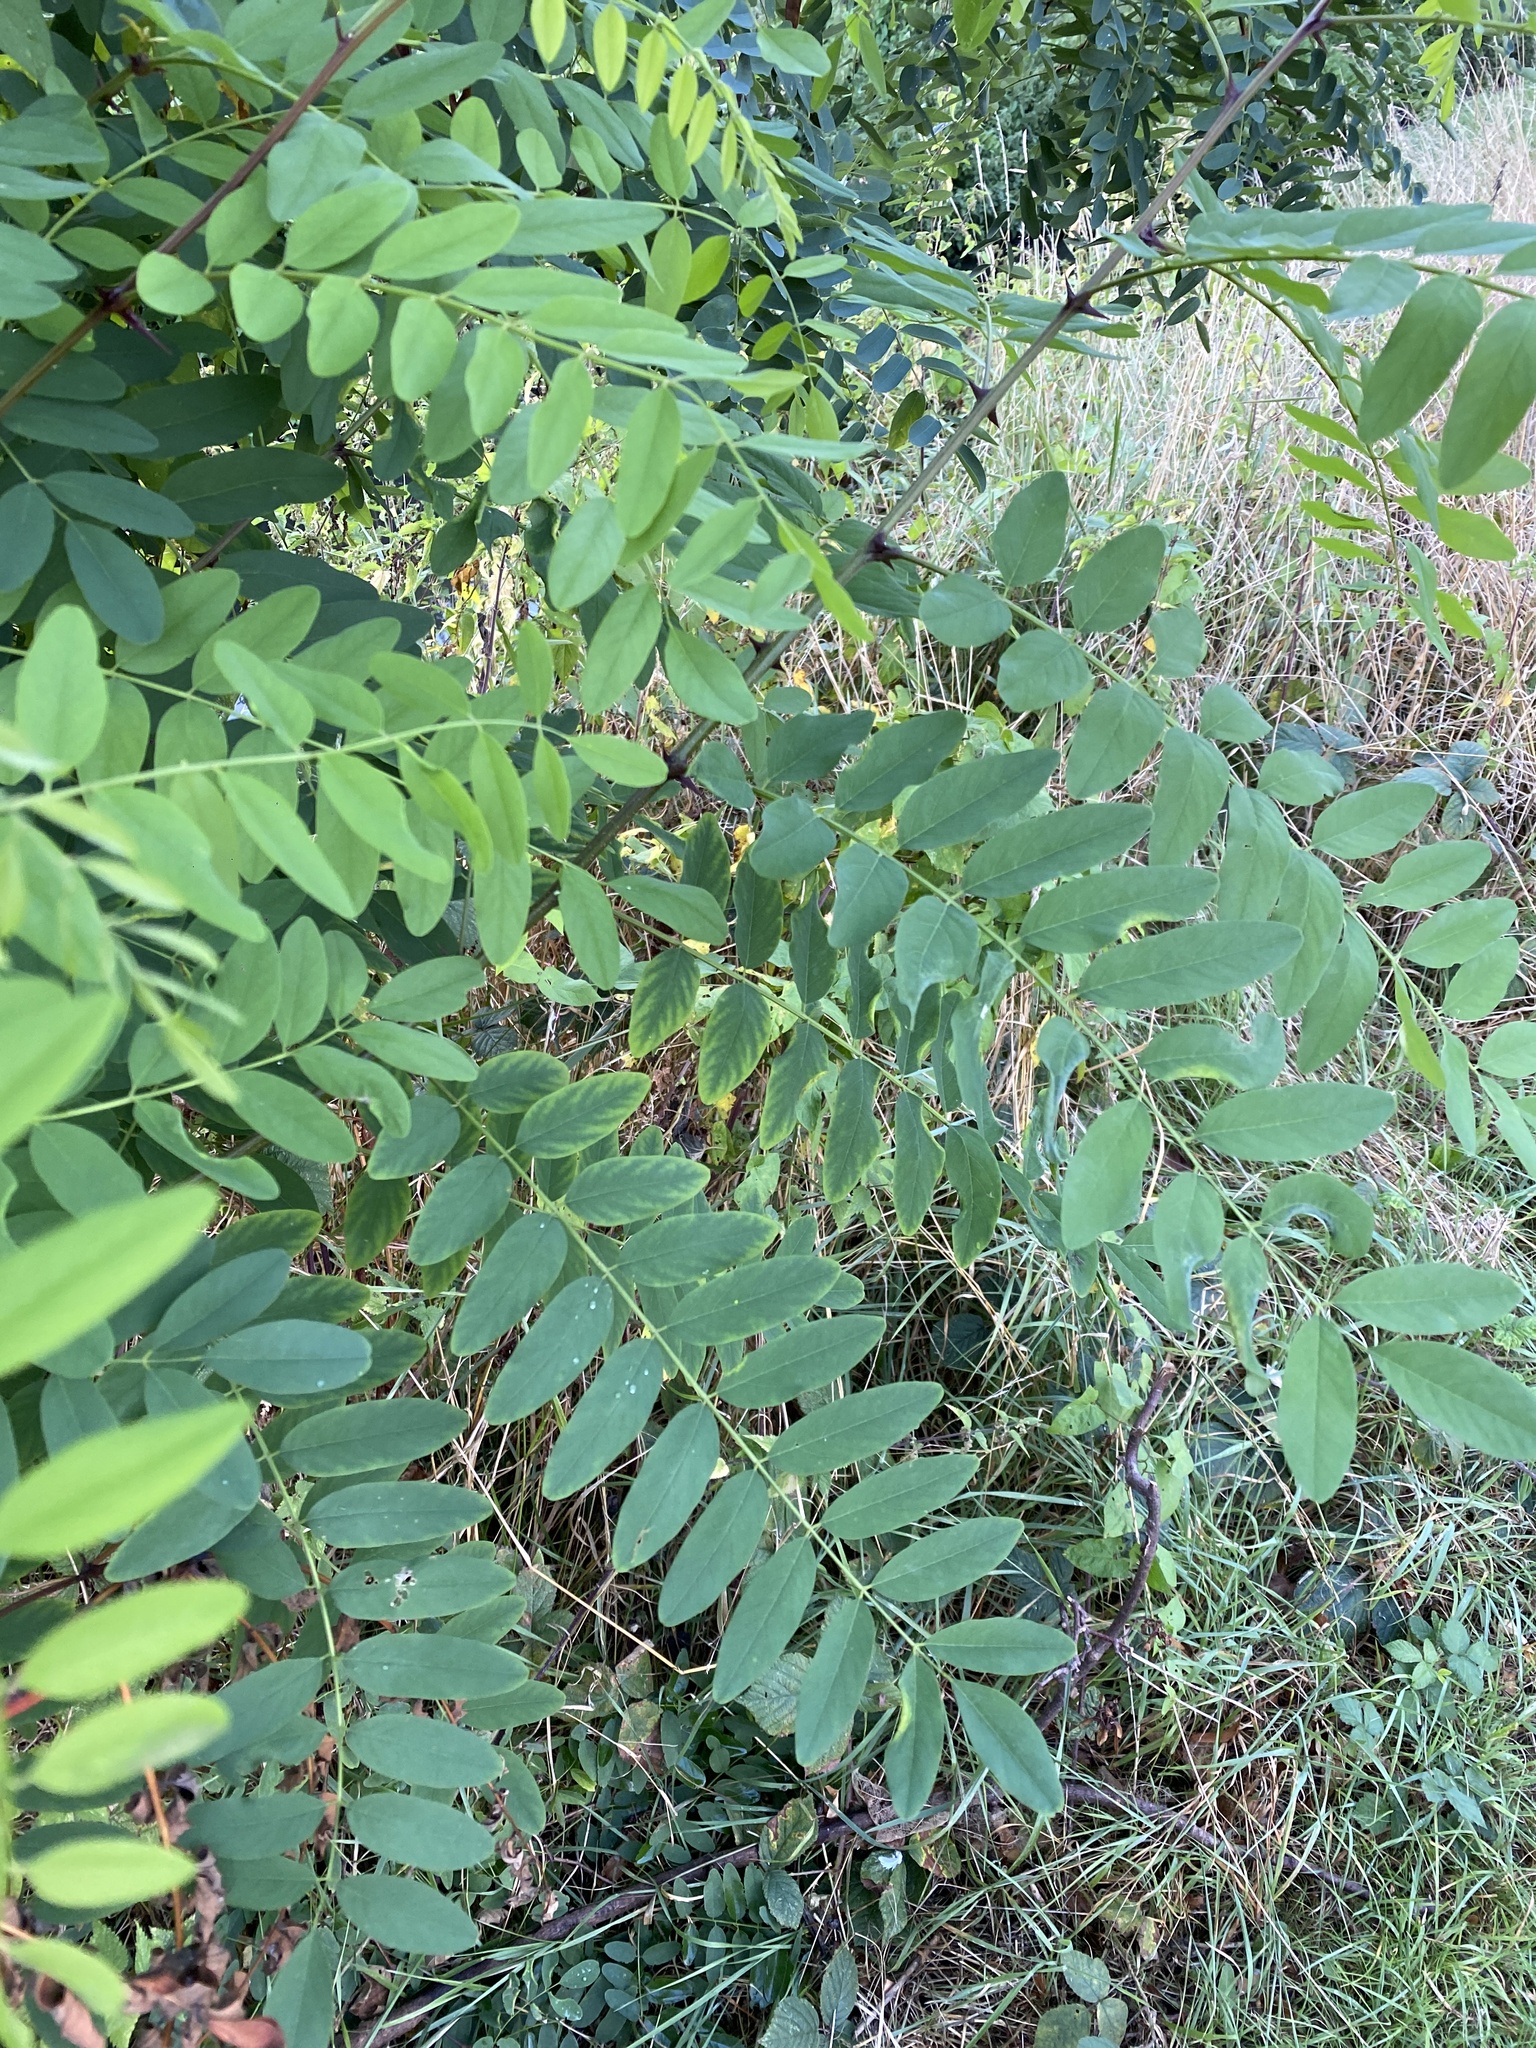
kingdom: Plantae
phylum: Tracheophyta
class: Magnoliopsida
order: Fabales
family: Fabaceae
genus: Robinia
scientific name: Robinia pseudoacacia
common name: Black locust
